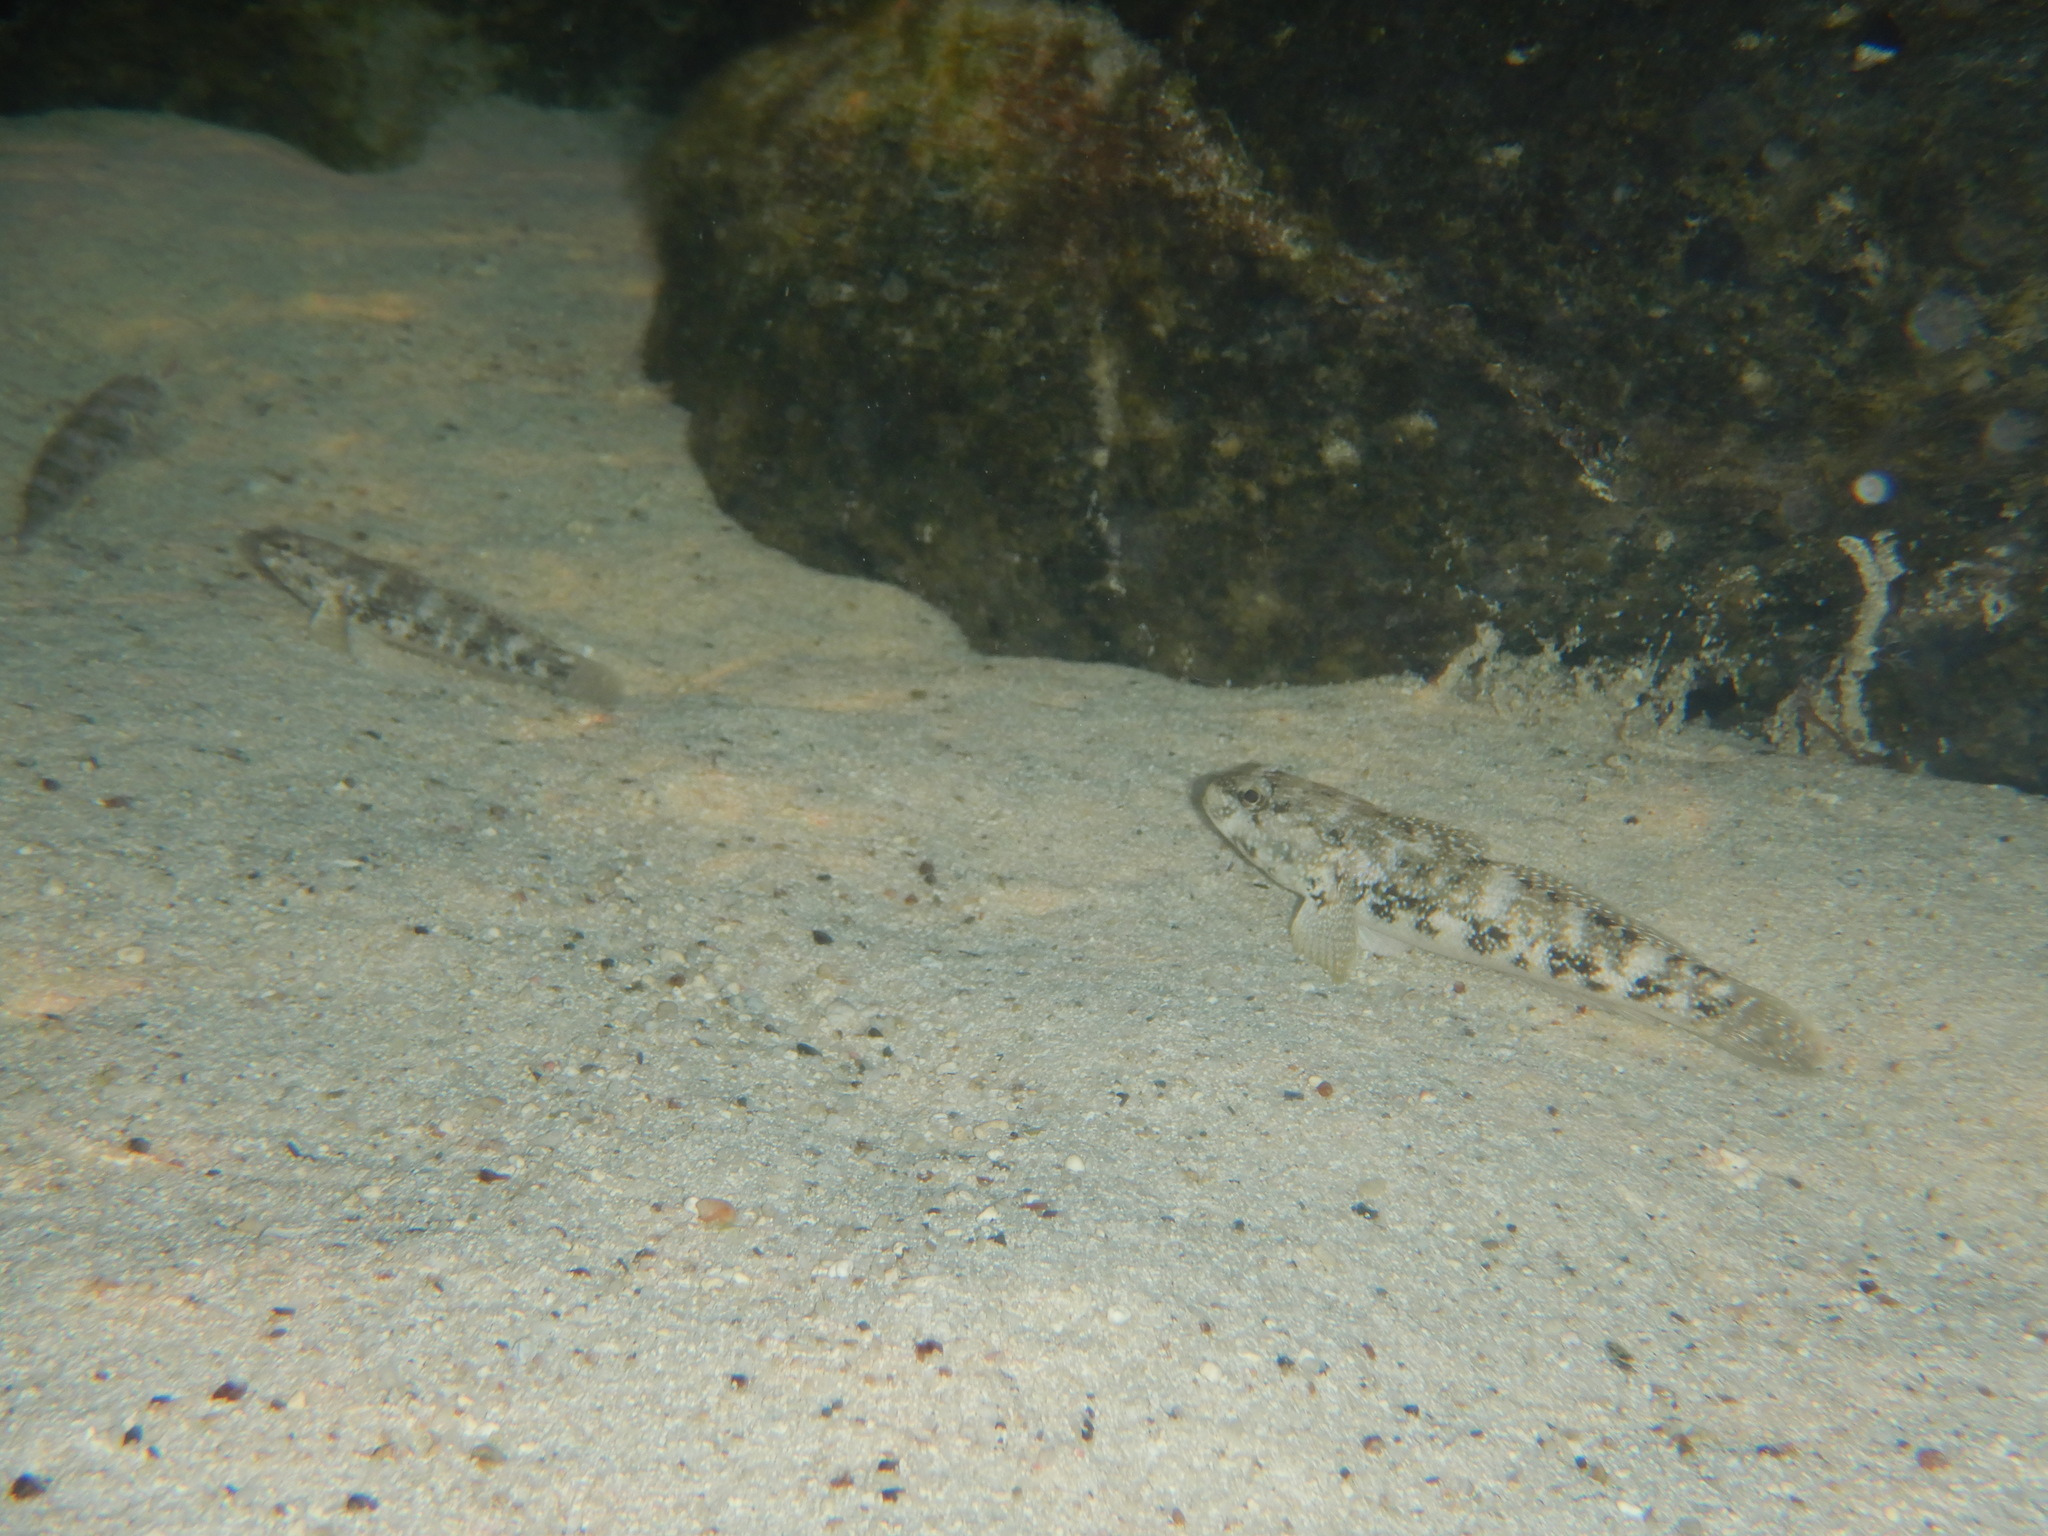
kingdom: Animalia
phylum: Chordata
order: Perciformes
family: Gobiidae
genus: Mauligobius
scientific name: Mauligobius maderensis
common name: Rock goby
